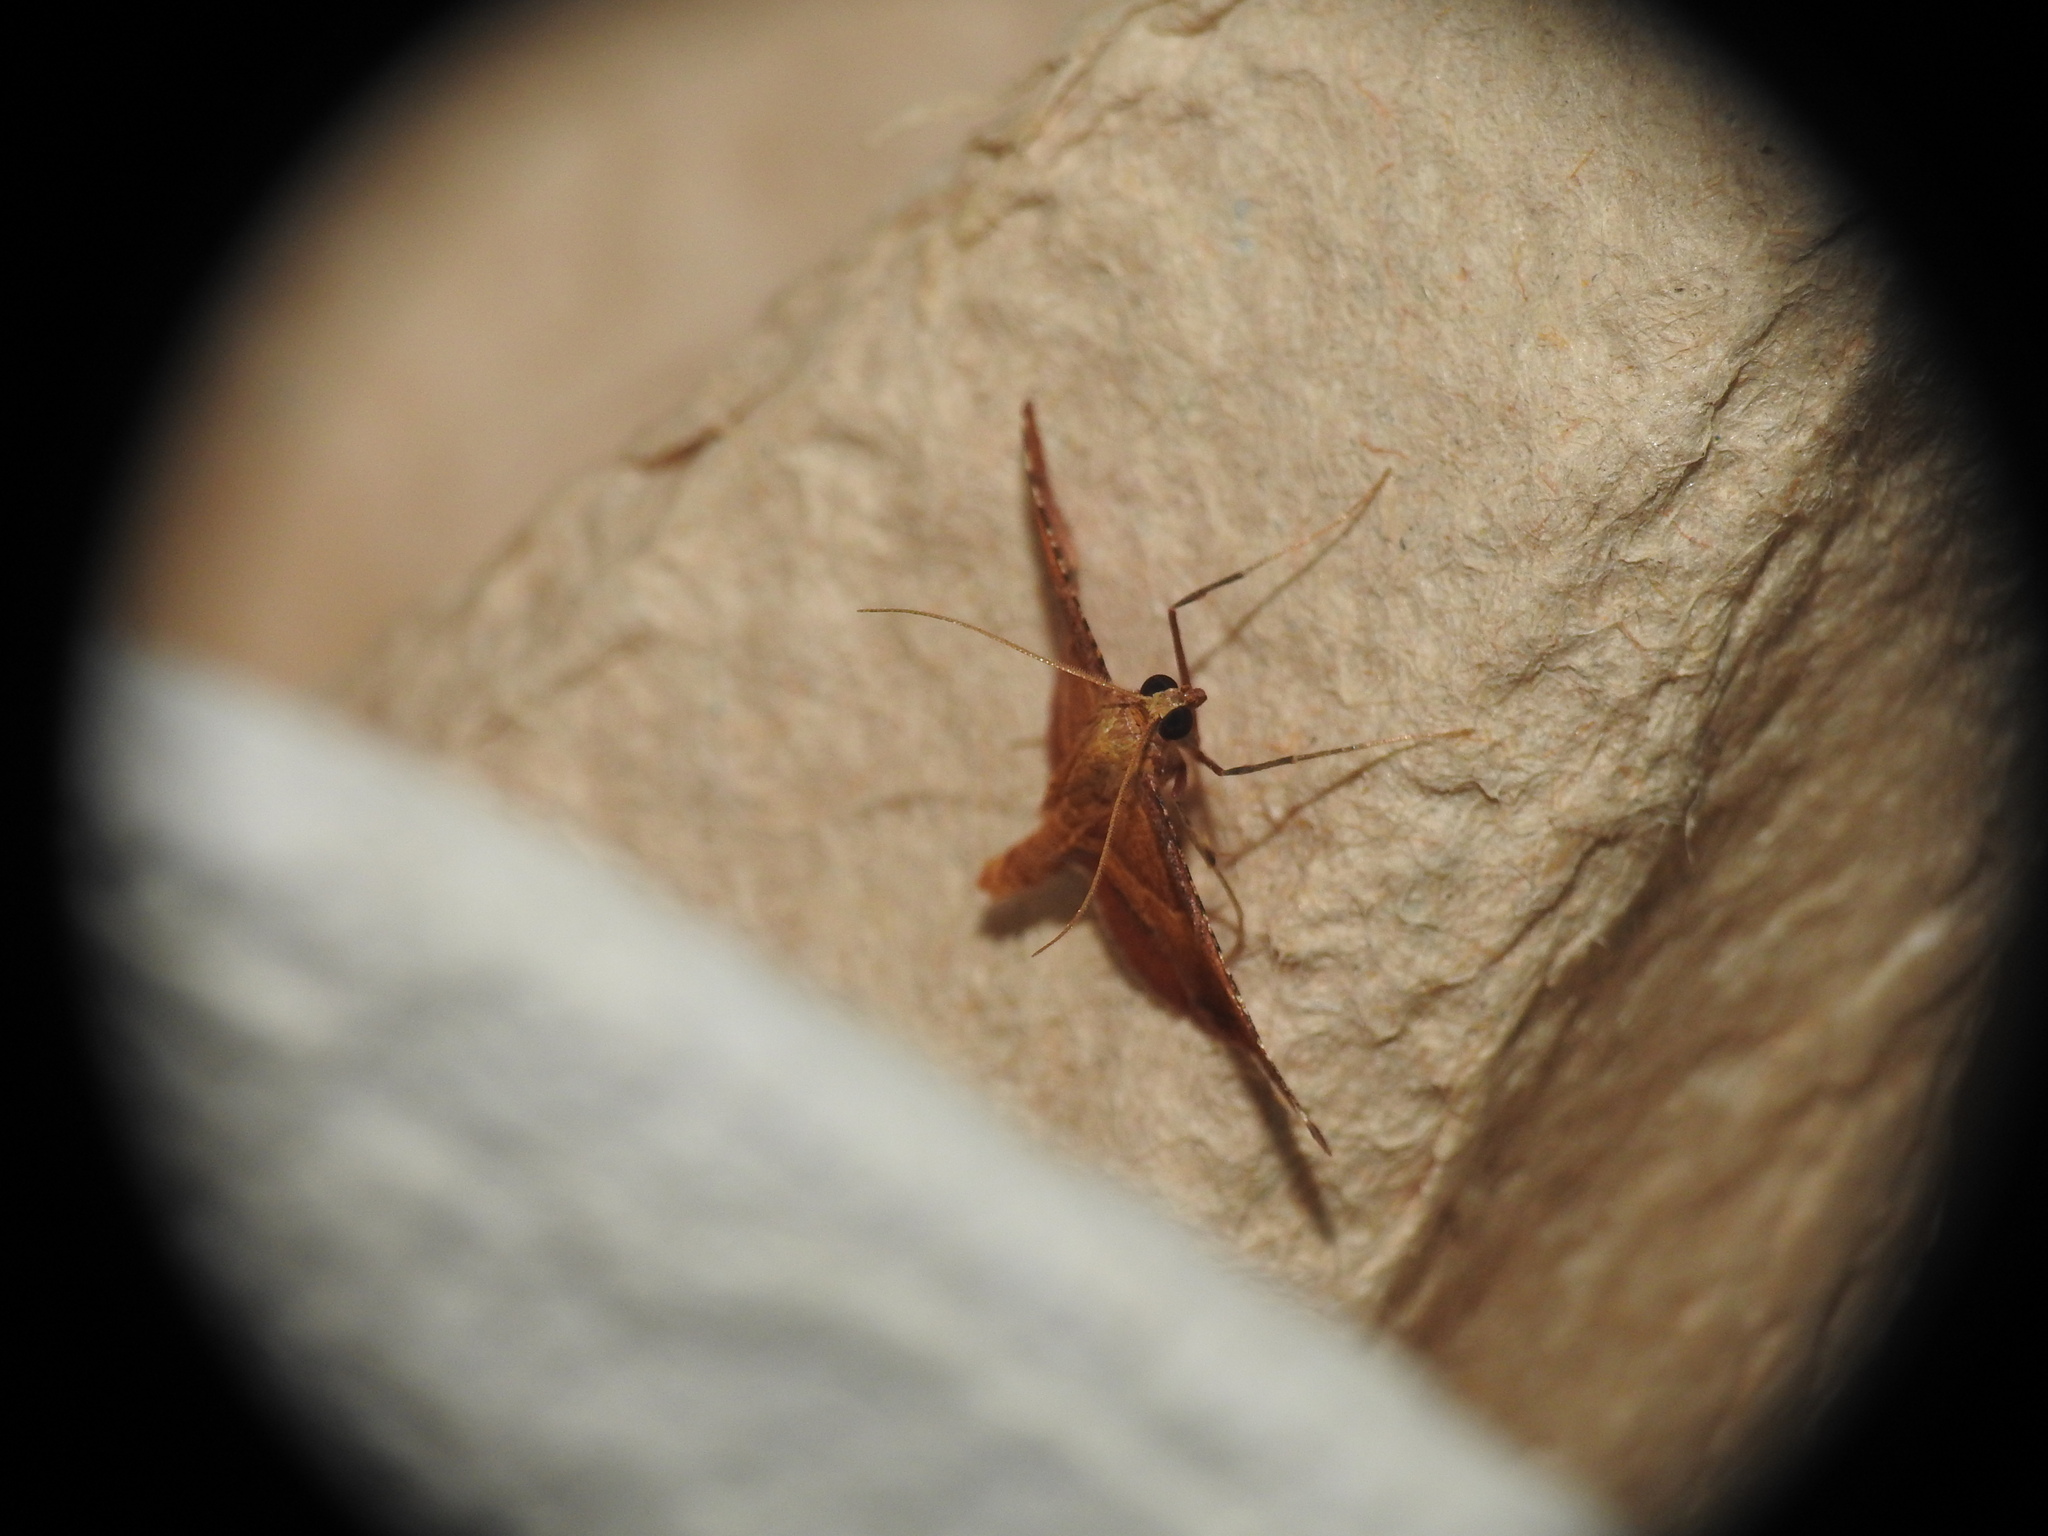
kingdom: Animalia
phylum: Arthropoda
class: Insecta
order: Lepidoptera
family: Pyralidae
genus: Endotricha
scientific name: Endotricha flammealis
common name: Rosy tabby
